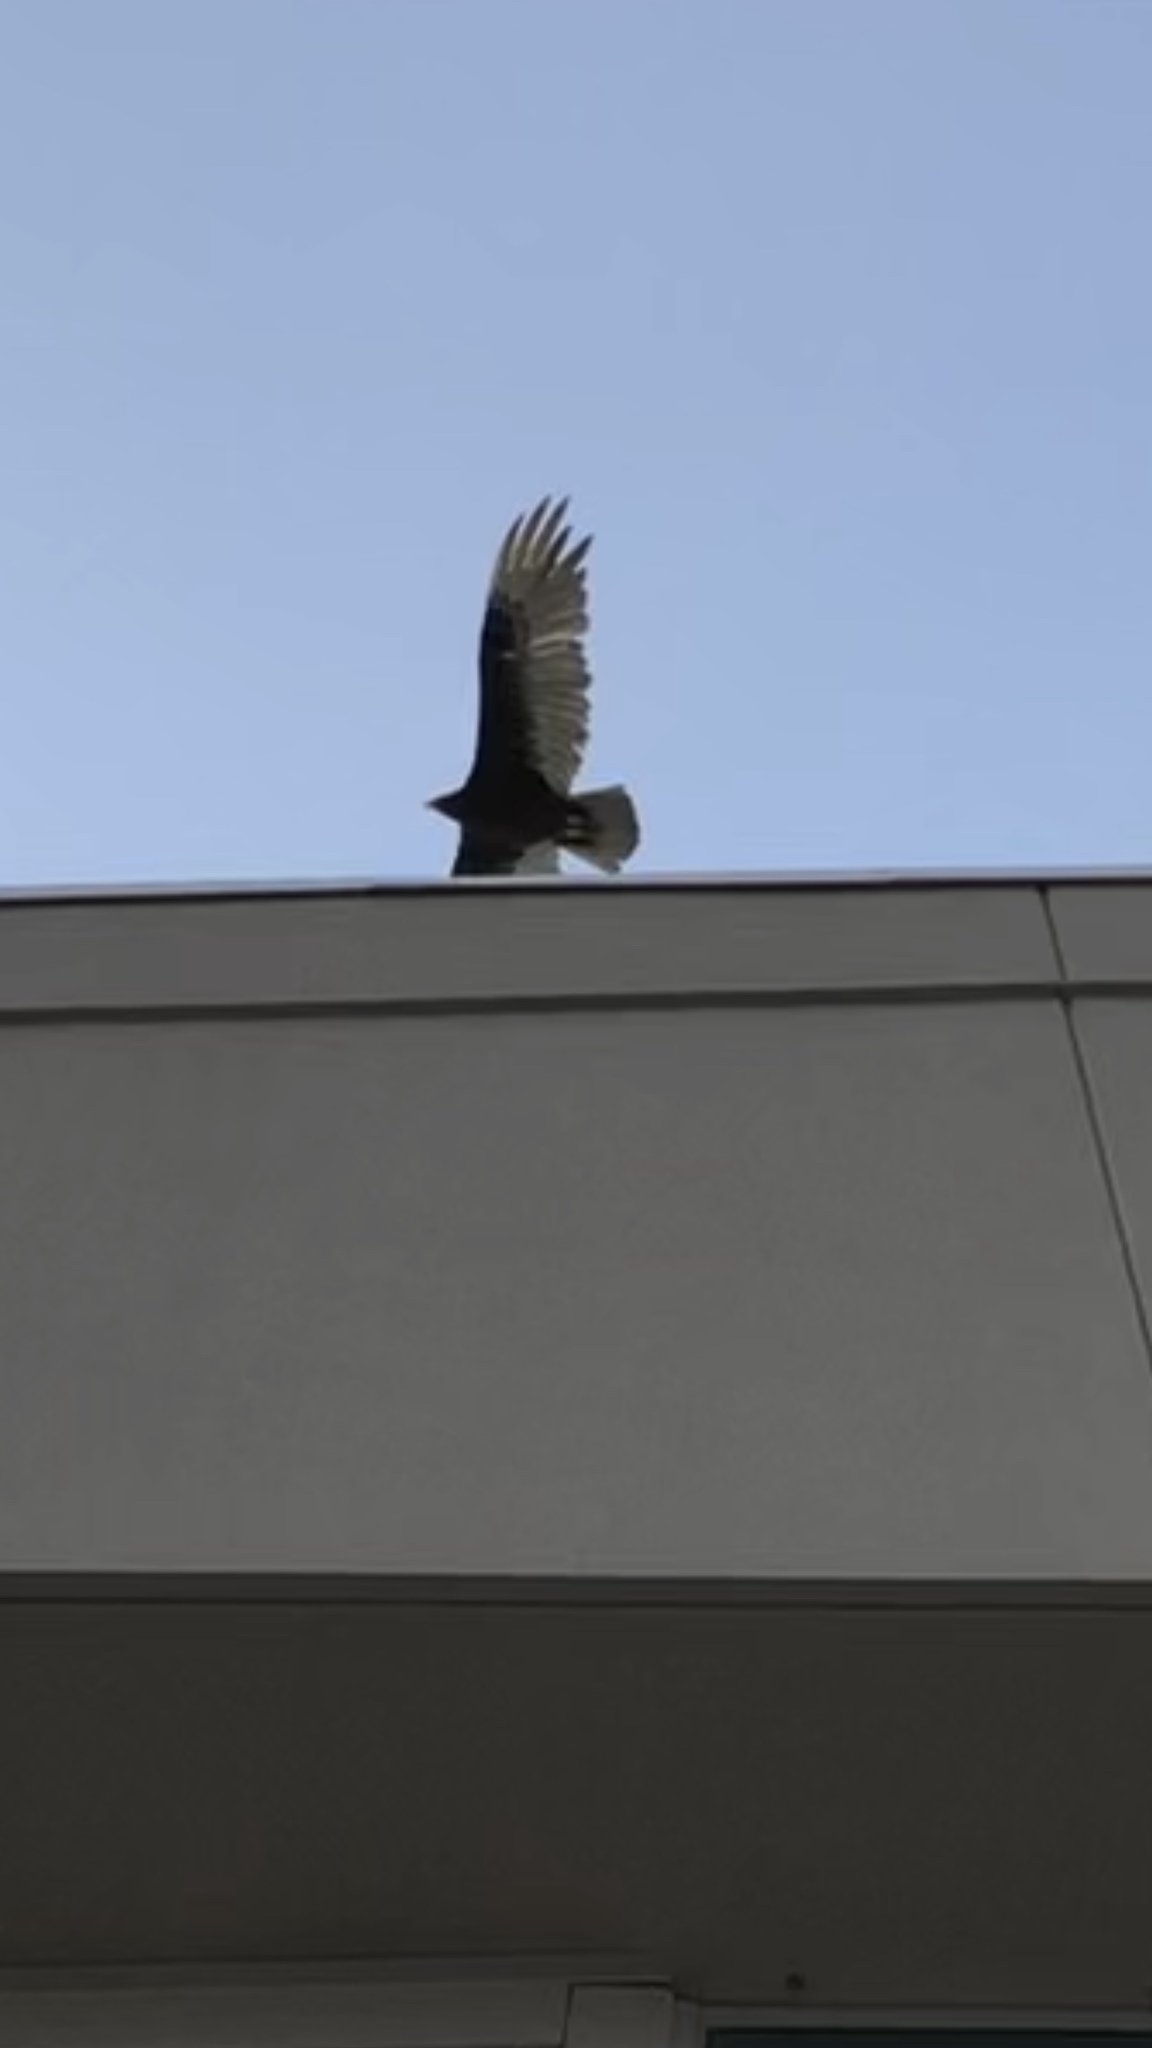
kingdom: Animalia
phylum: Chordata
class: Aves
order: Accipitriformes
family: Cathartidae
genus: Cathartes
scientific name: Cathartes aura
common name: Turkey vulture
